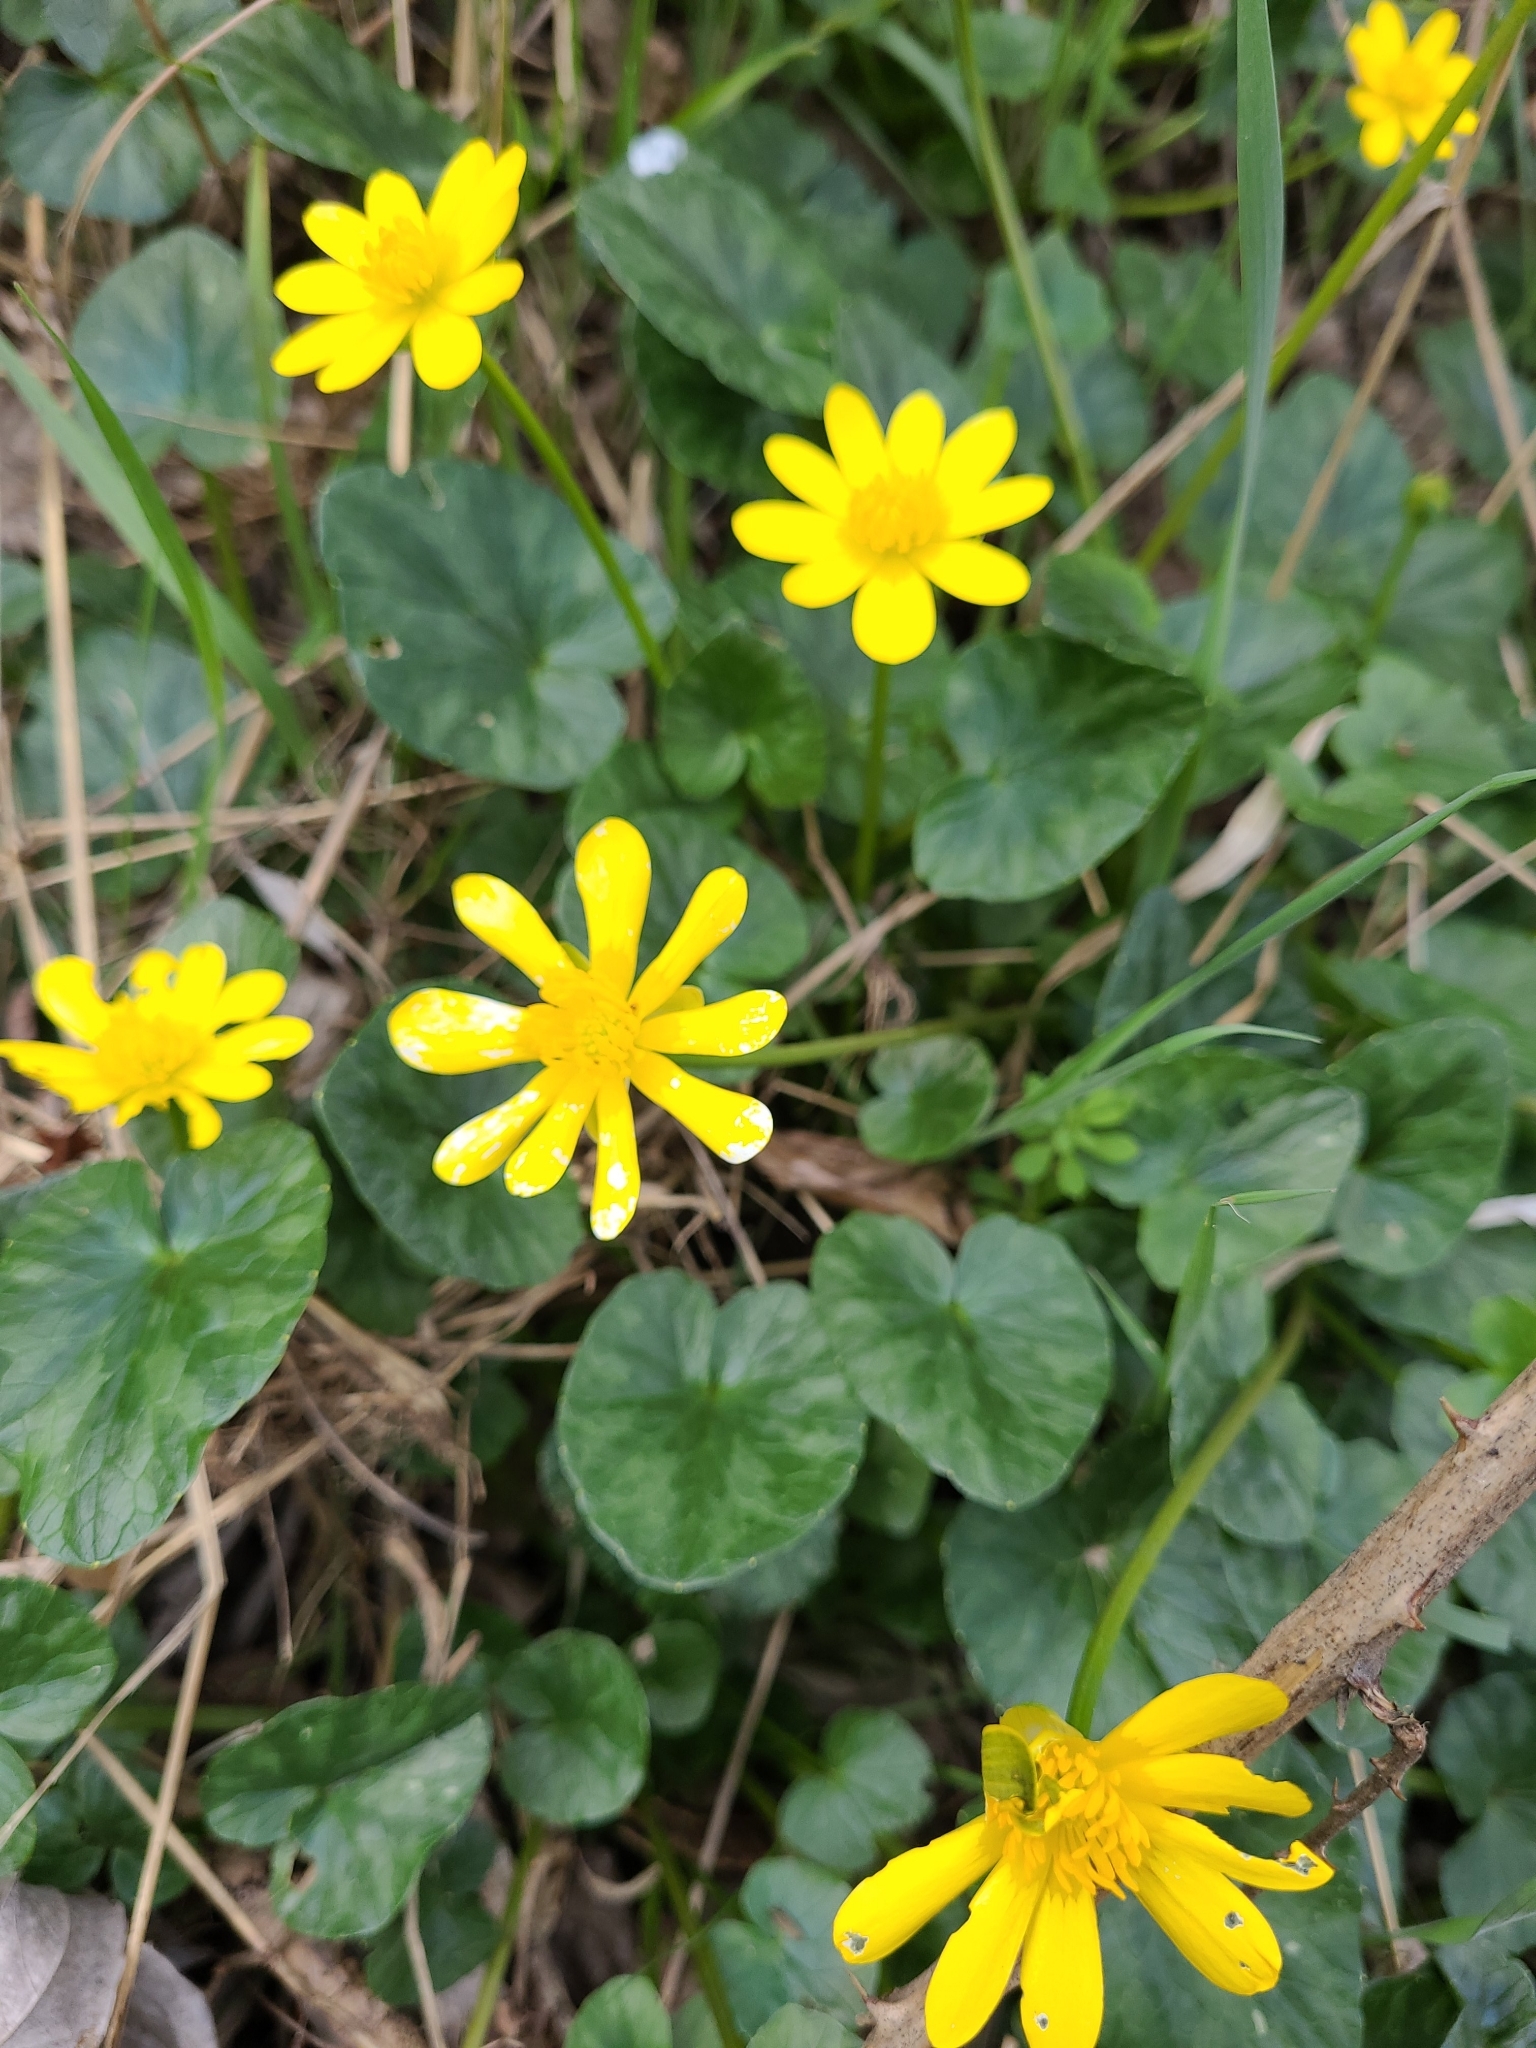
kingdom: Plantae
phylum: Tracheophyta
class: Magnoliopsida
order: Ranunculales
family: Ranunculaceae
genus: Ficaria
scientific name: Ficaria verna
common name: Lesser celandine
